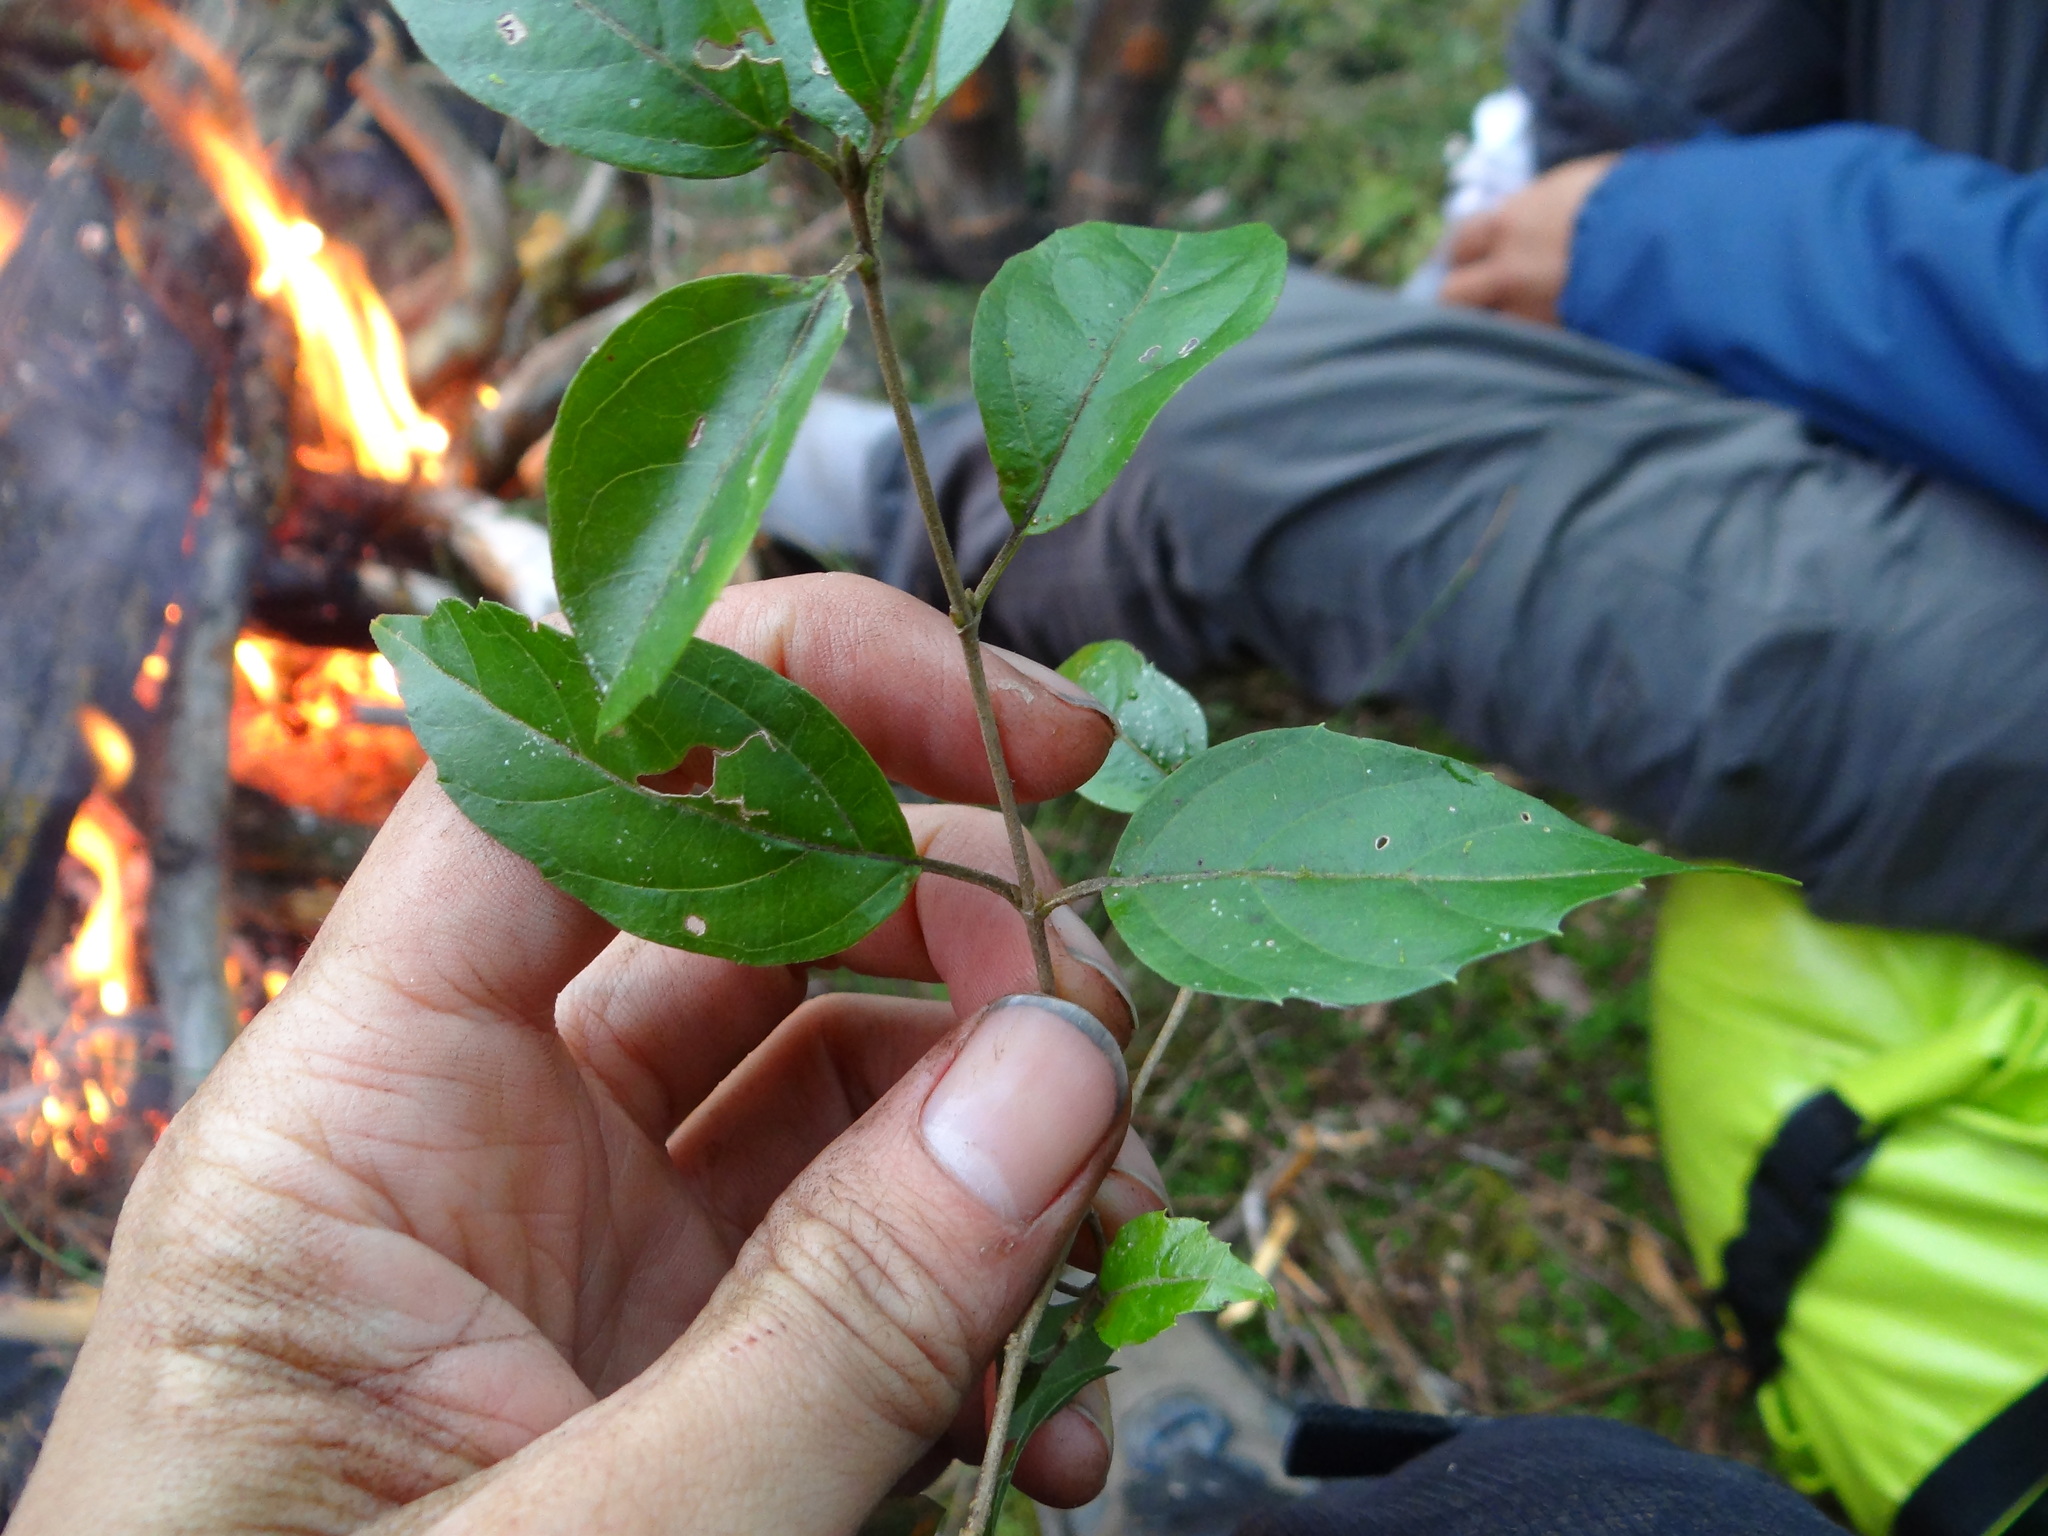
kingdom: Plantae
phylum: Tracheophyta
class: Magnoliopsida
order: Dipsacales
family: Viburnaceae
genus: Viburnum
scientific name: Viburnum foetidum
